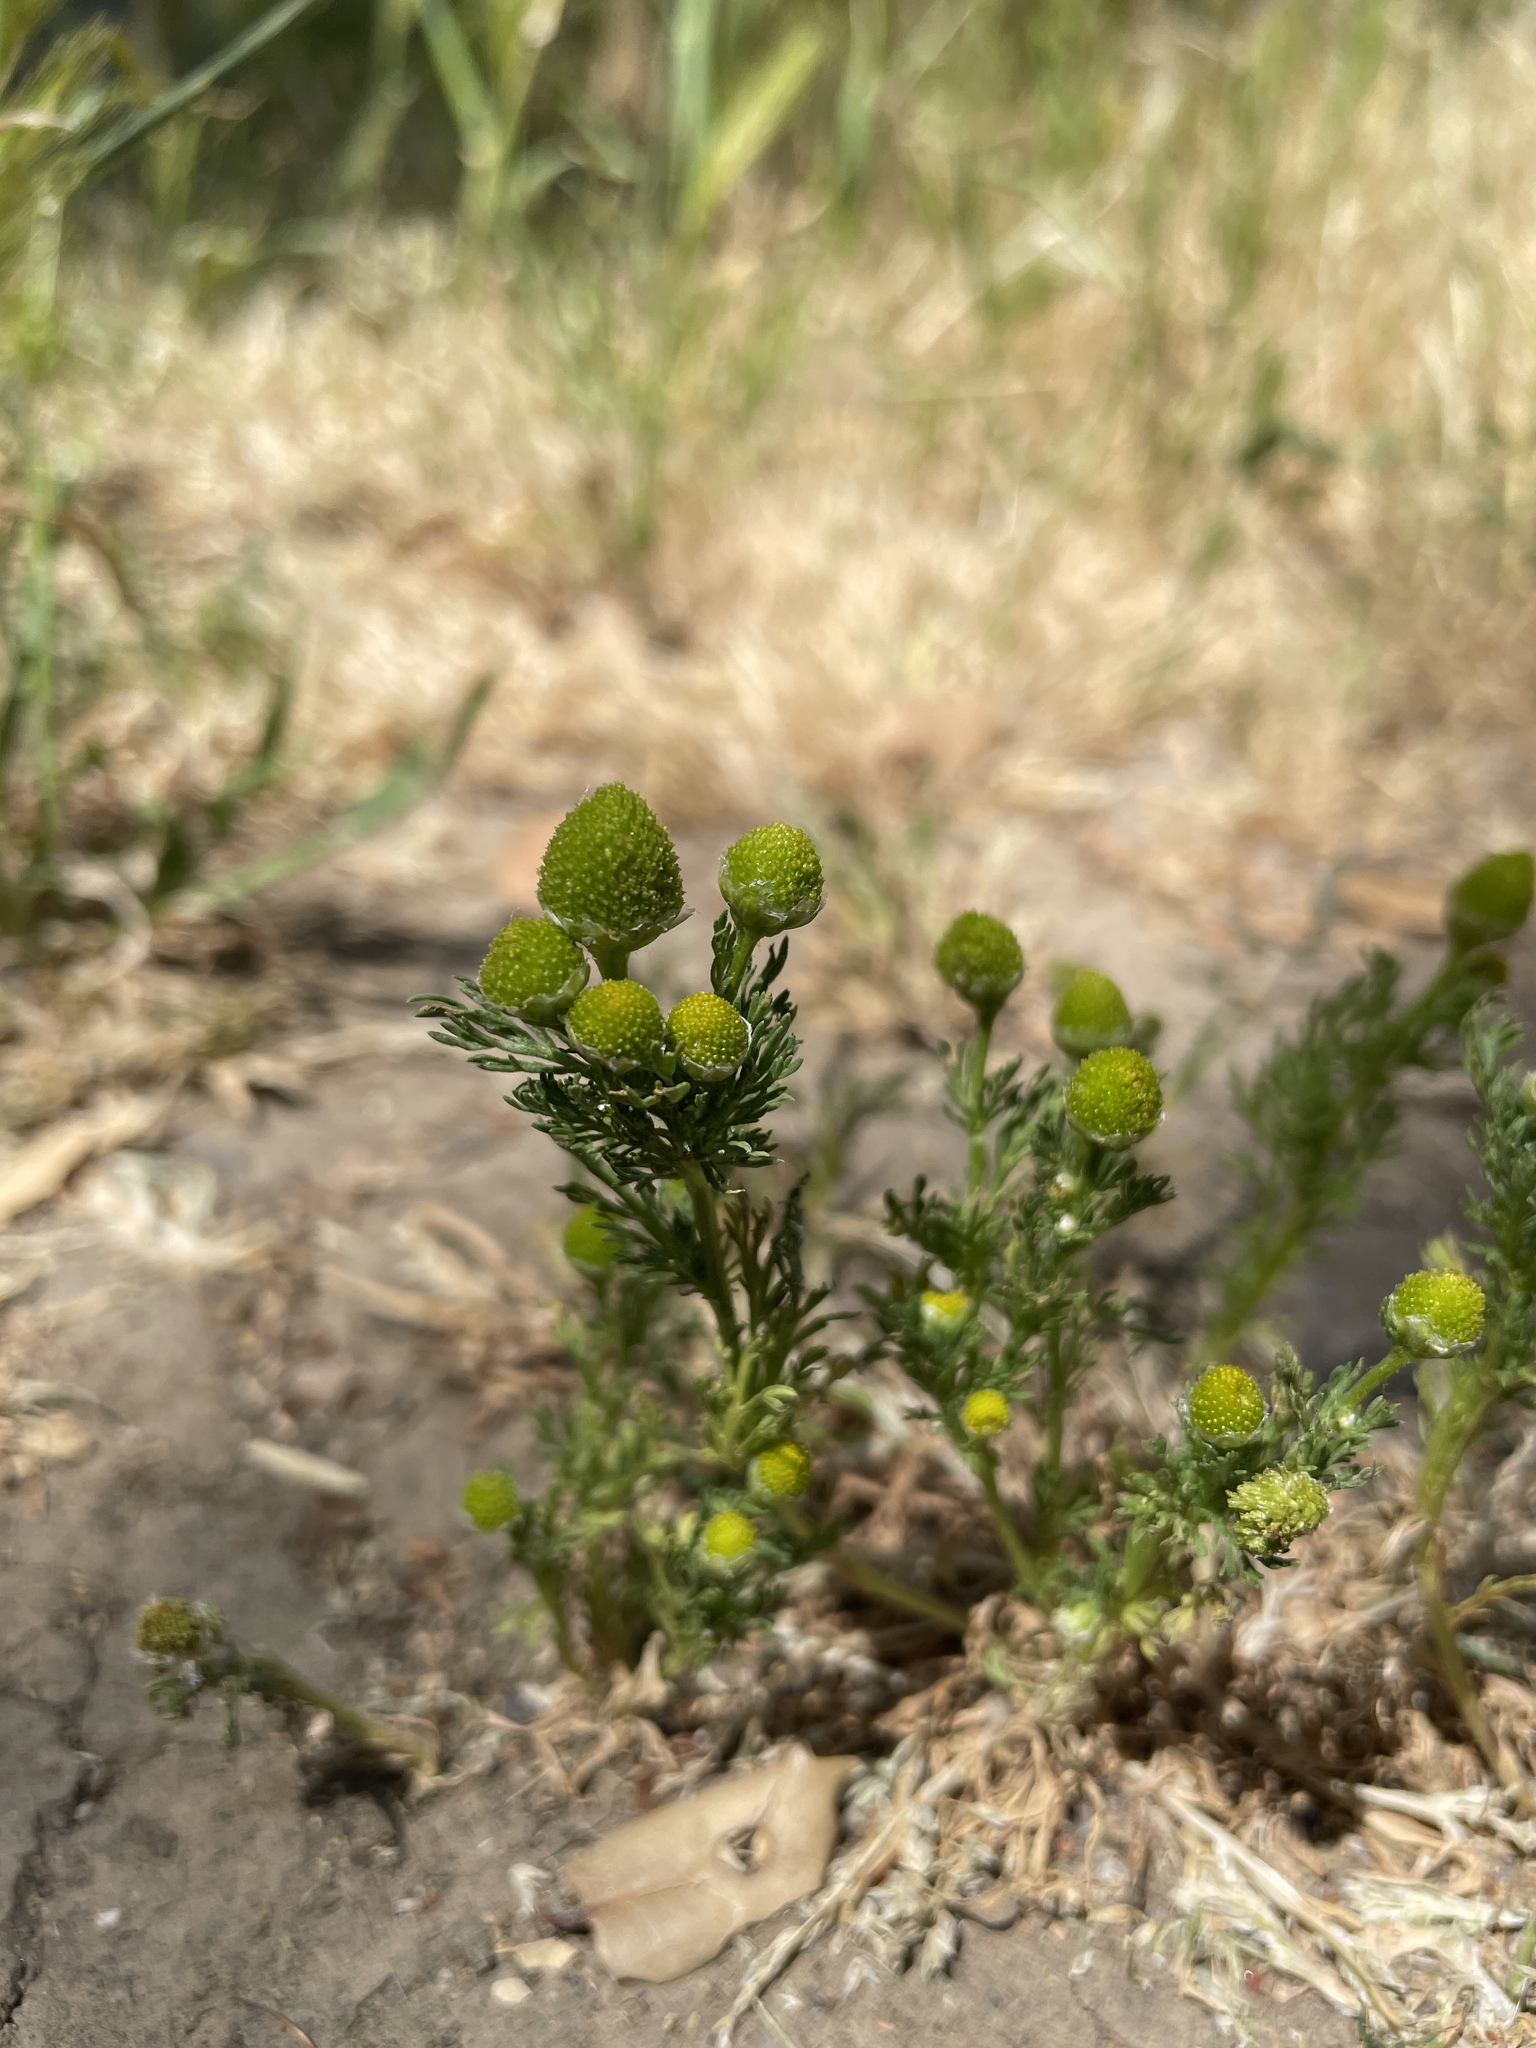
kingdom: Plantae
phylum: Tracheophyta
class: Magnoliopsida
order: Asterales
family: Asteraceae
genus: Matricaria
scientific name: Matricaria discoidea
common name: Disc mayweed
